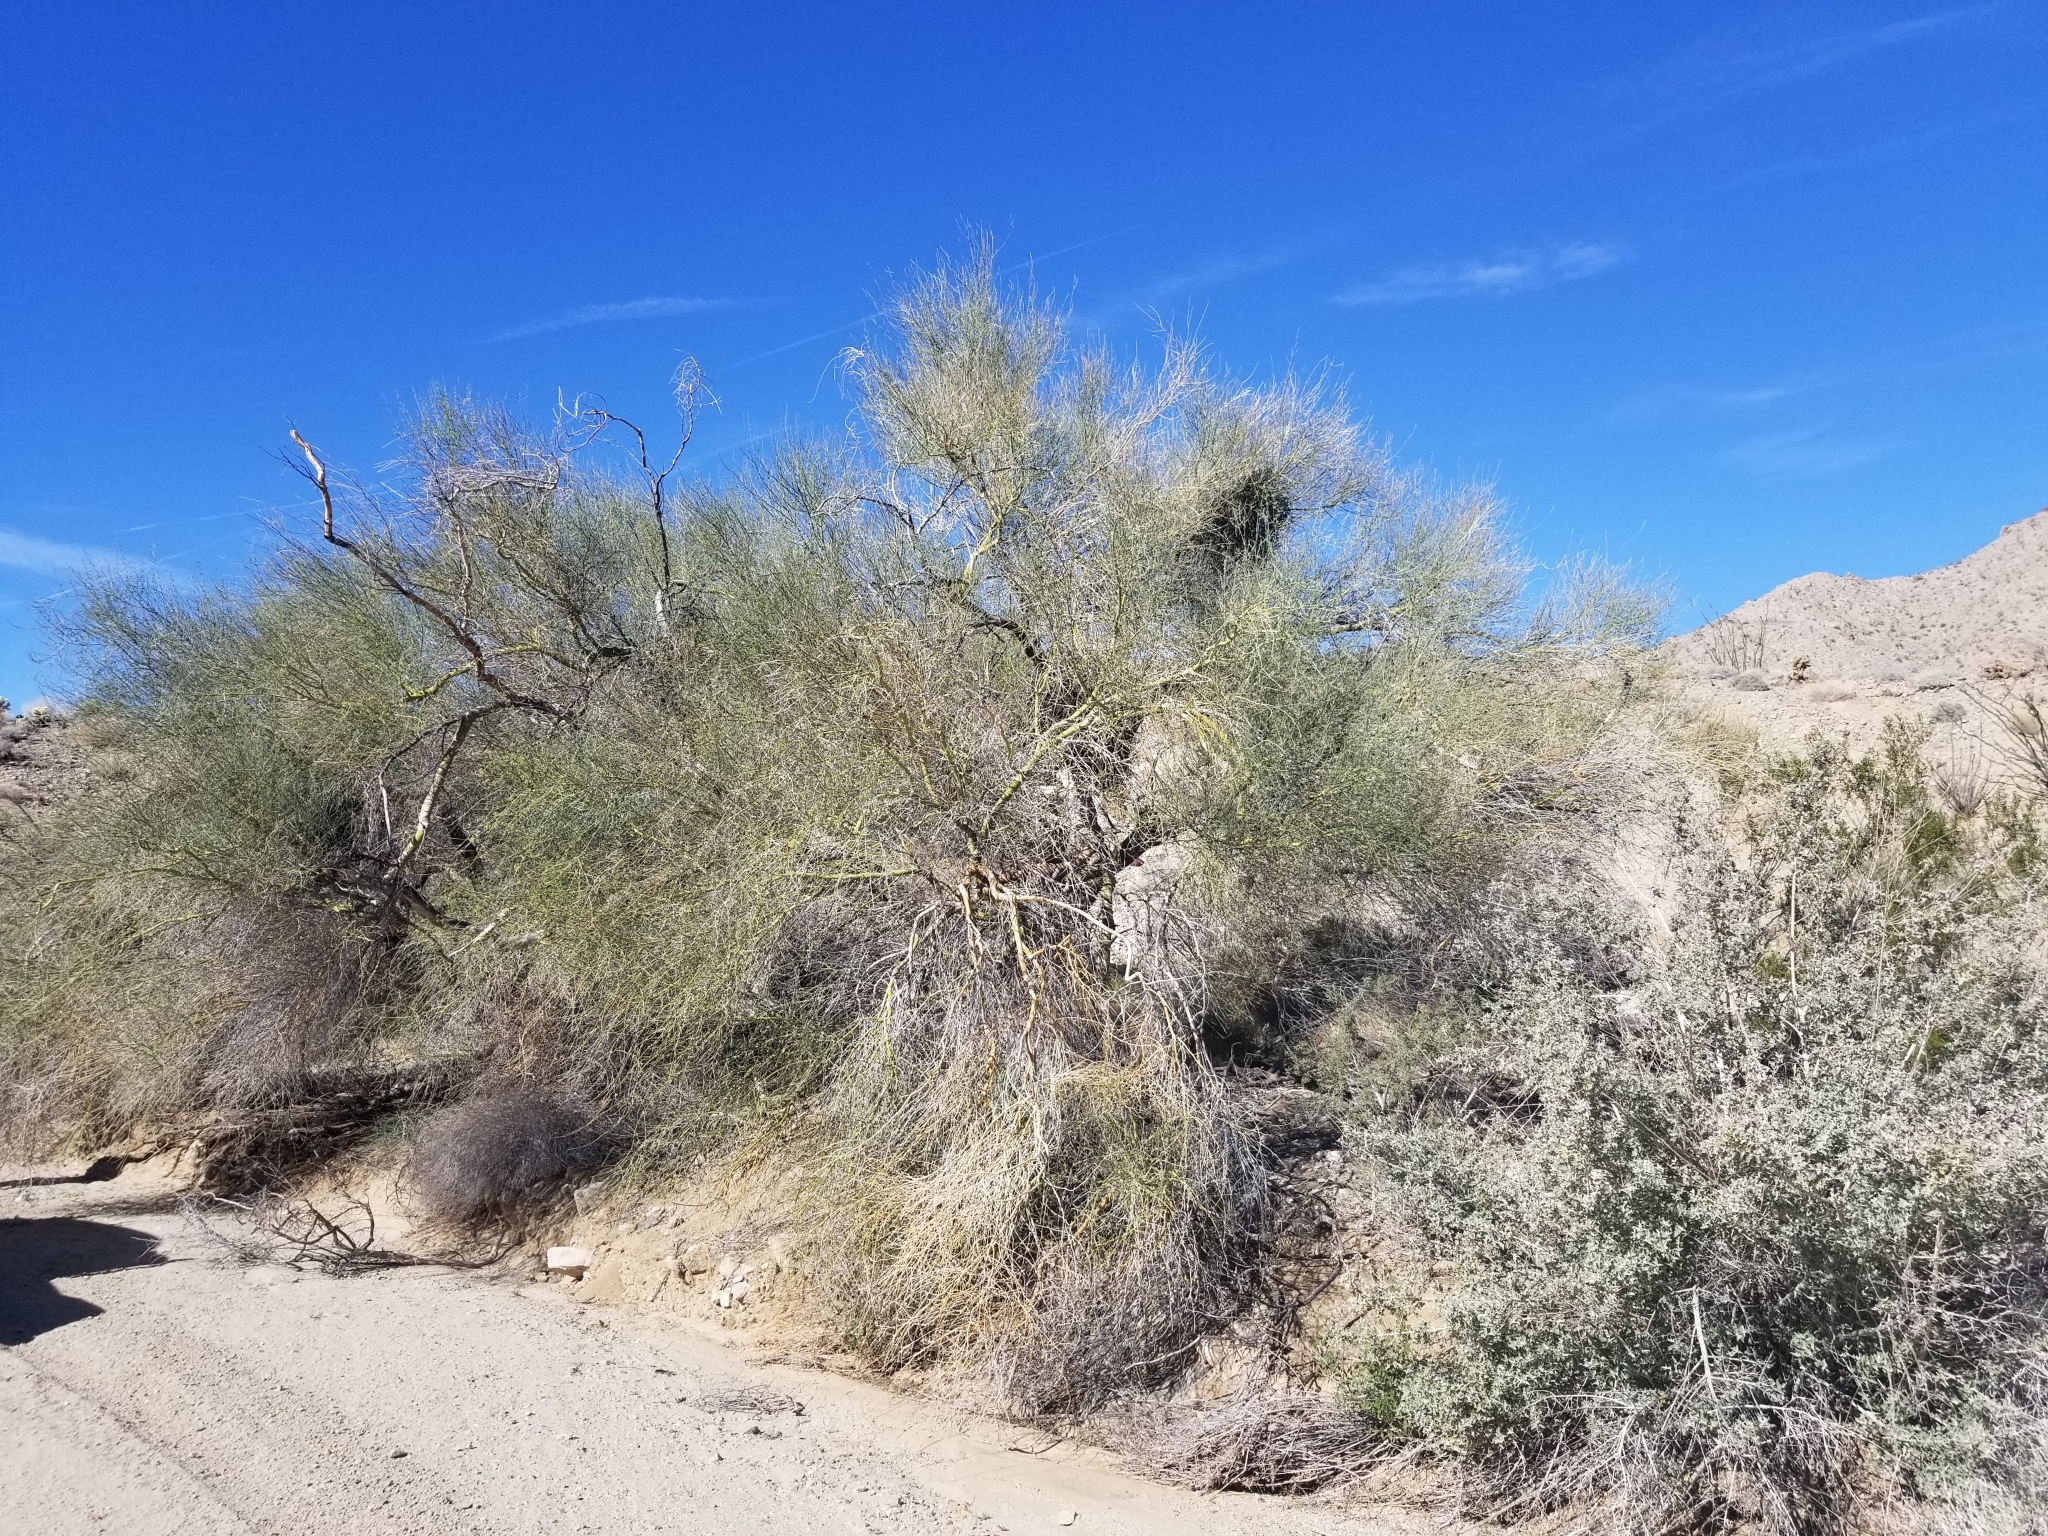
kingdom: Plantae
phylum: Tracheophyta
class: Magnoliopsida
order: Fabales
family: Fabaceae
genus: Parkinsonia
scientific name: Parkinsonia florida
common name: Blue paloverde
